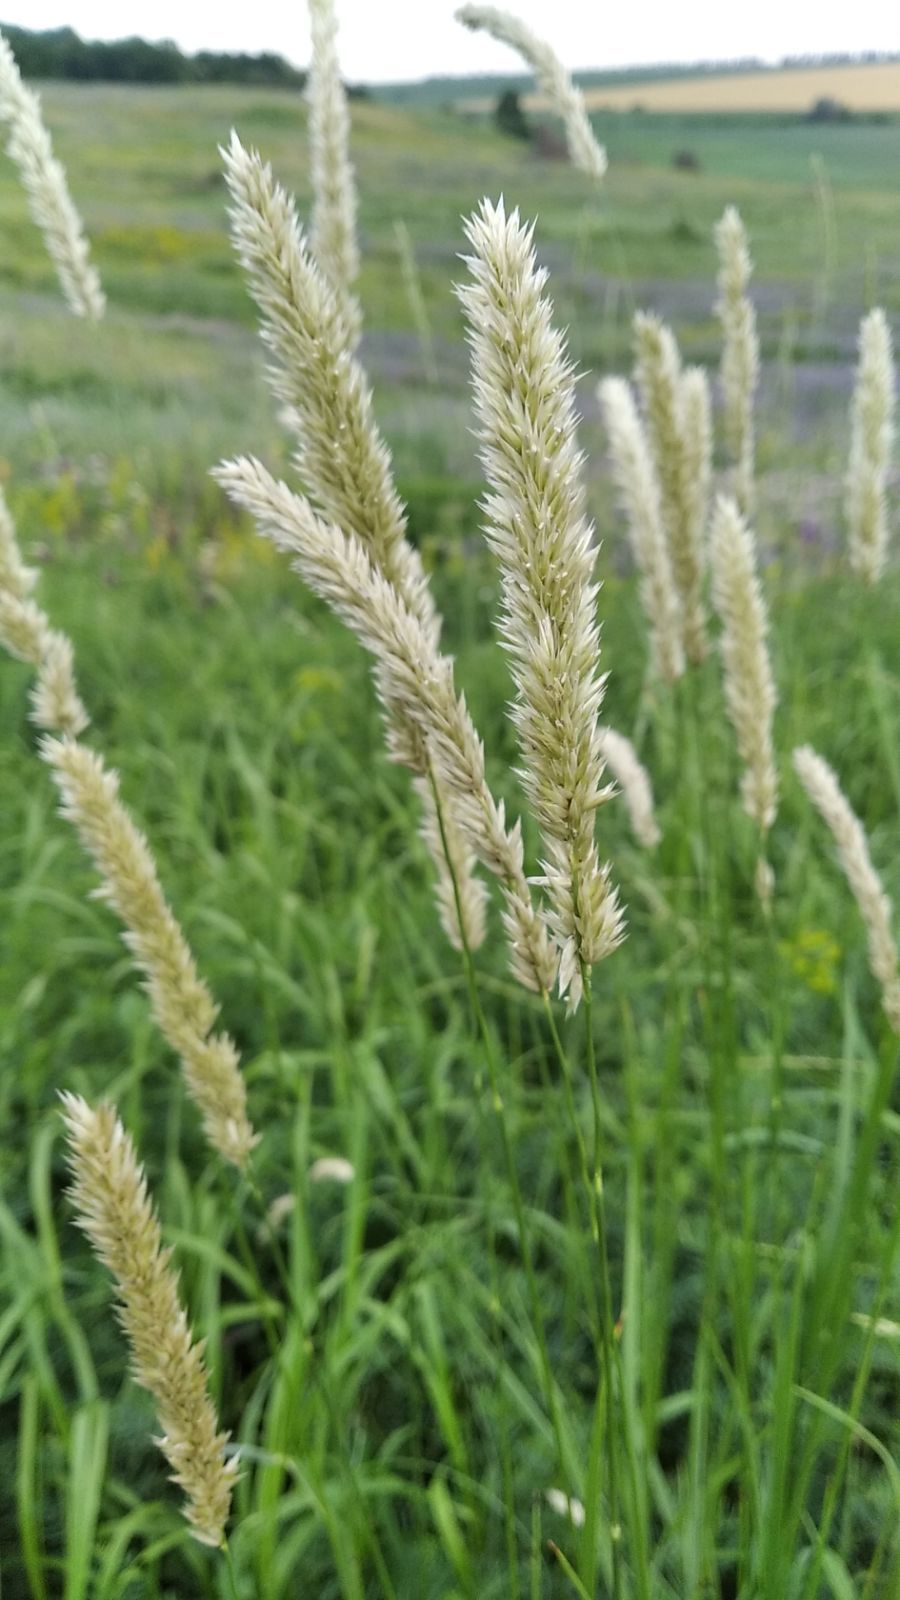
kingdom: Plantae
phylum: Tracheophyta
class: Liliopsida
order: Poales
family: Poaceae
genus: Melica
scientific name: Melica transsilvanica
